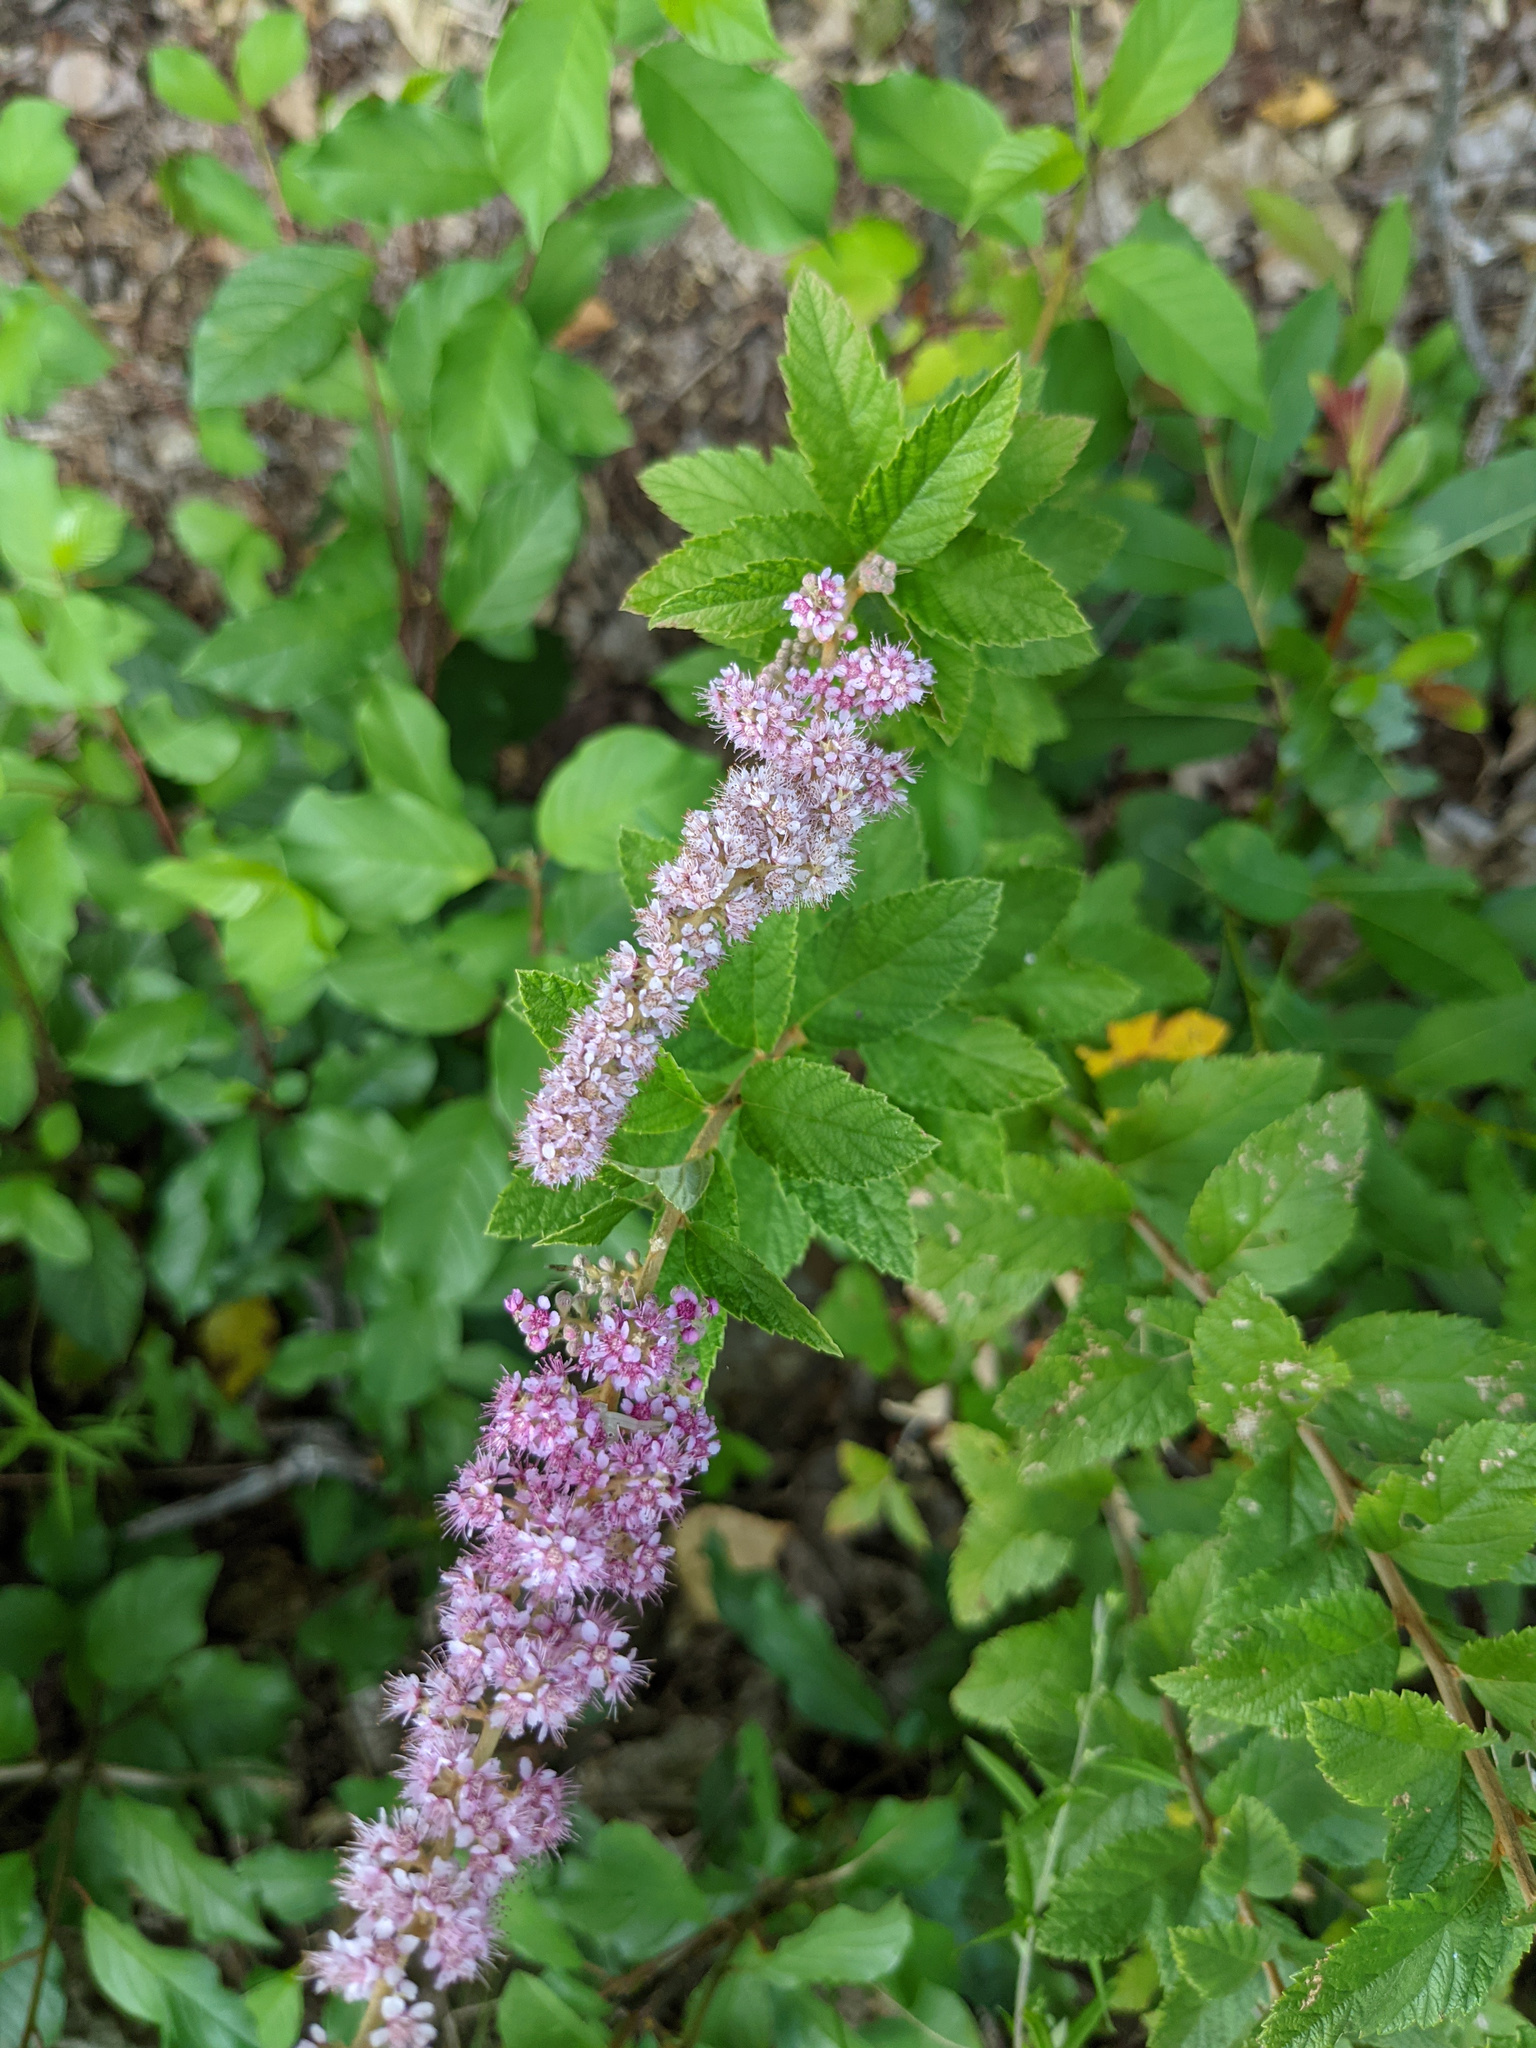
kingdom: Plantae
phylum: Tracheophyta
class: Magnoliopsida
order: Rosales
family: Rosaceae
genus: Spiraea
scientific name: Spiraea tomentosa
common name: Hardhack
